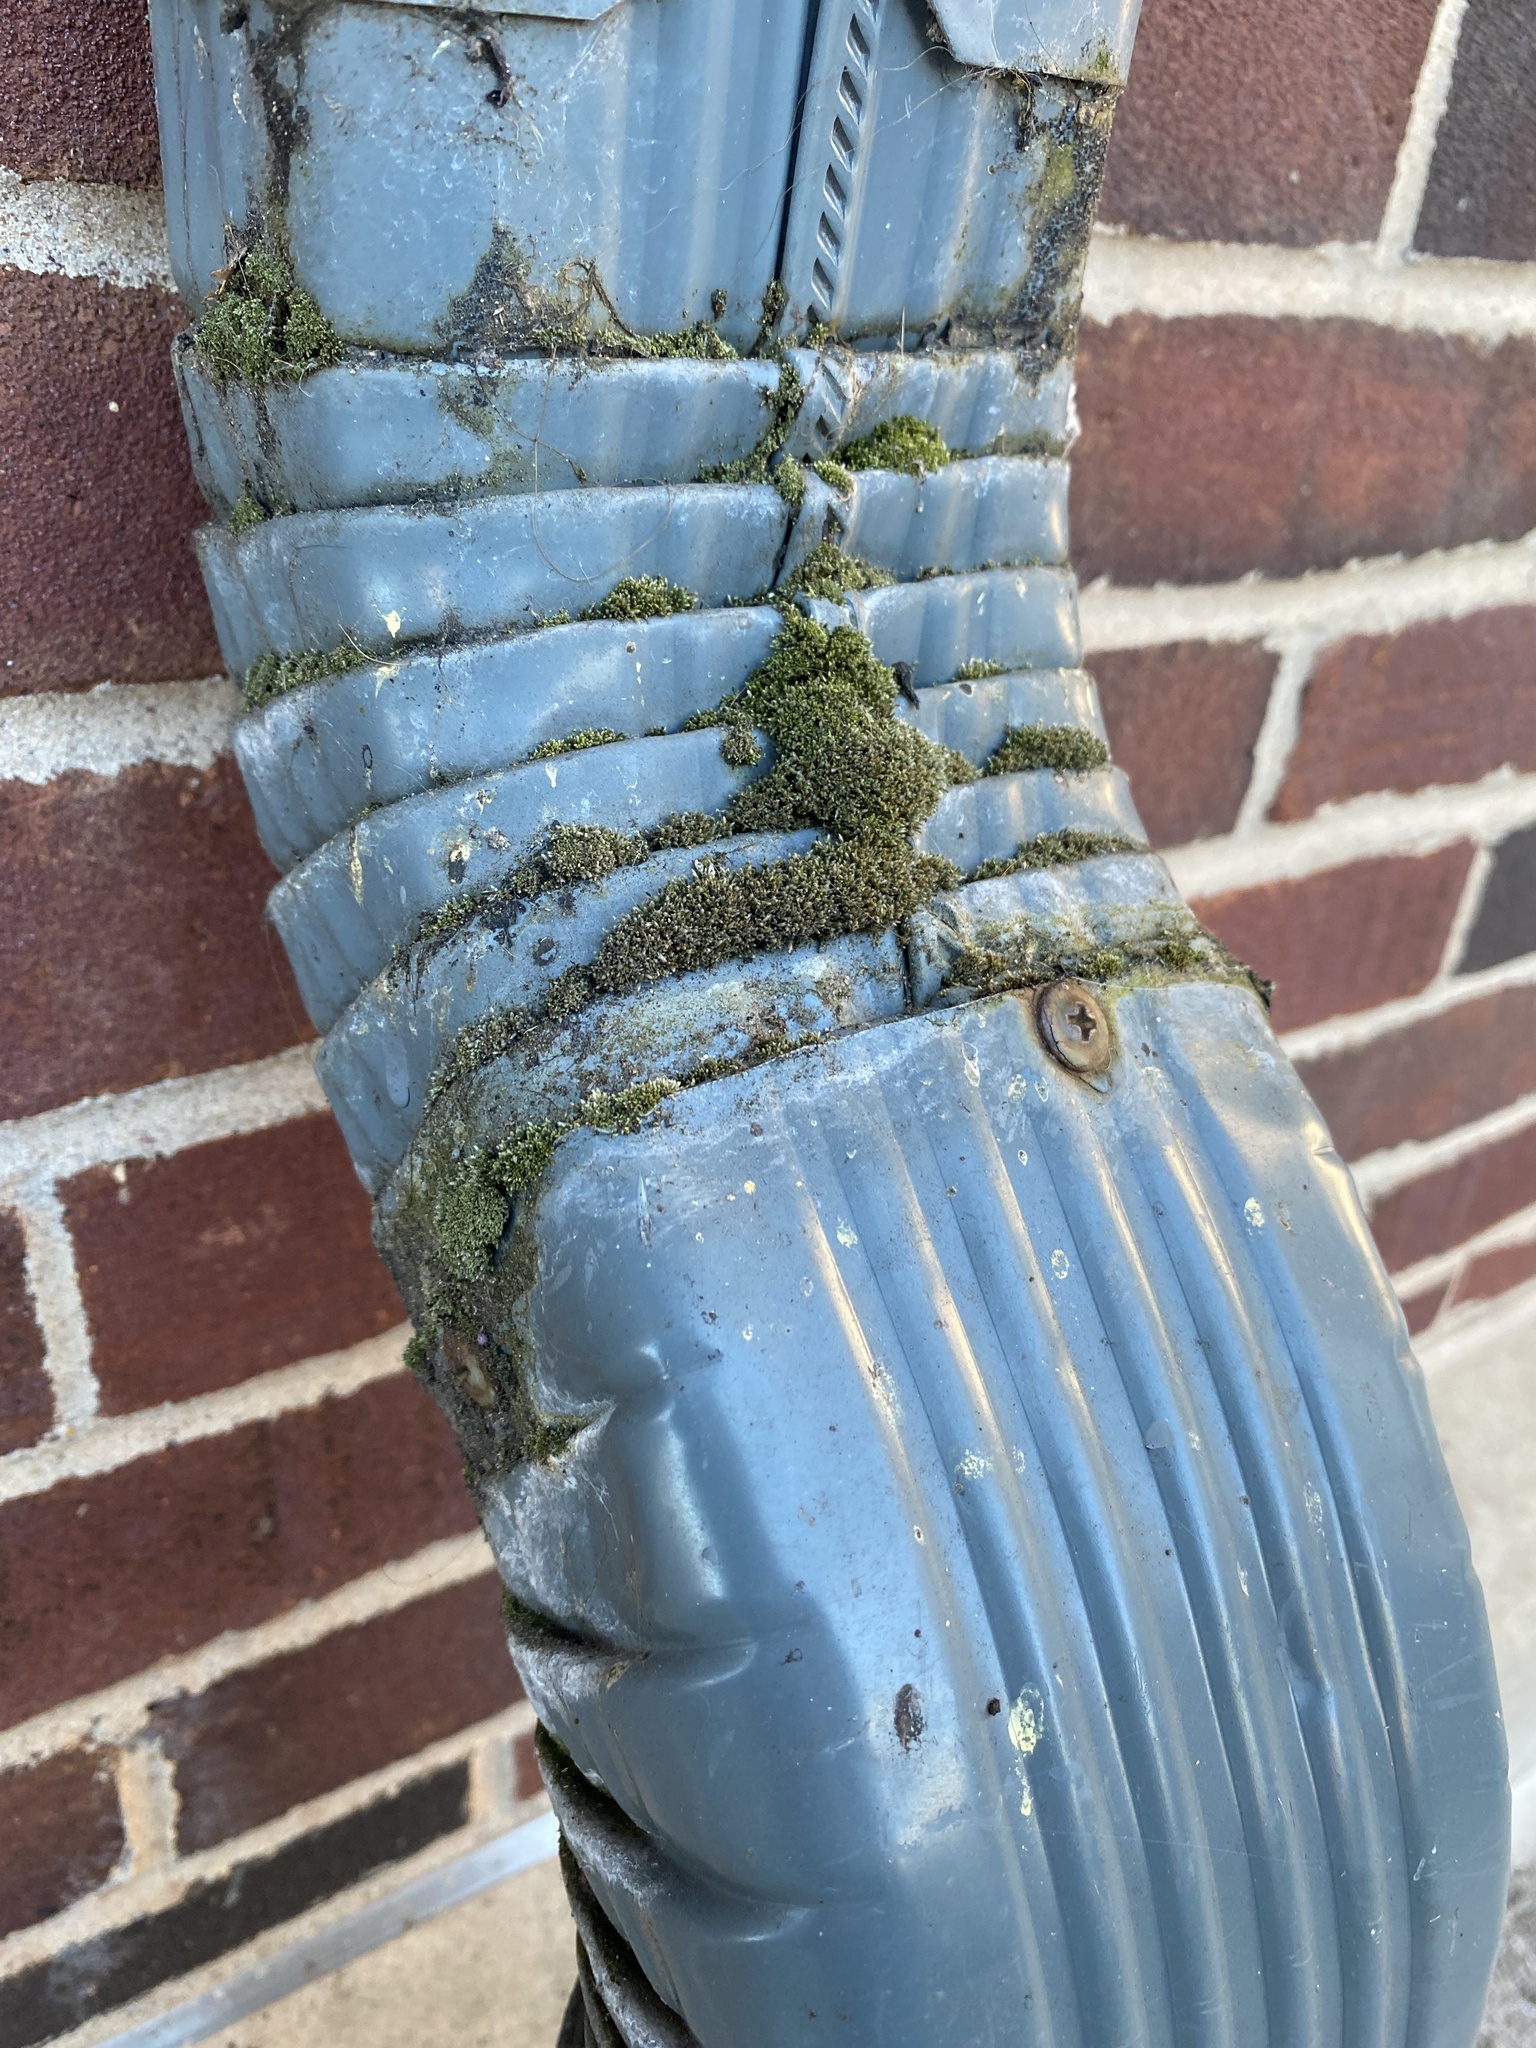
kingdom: Plantae
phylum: Bryophyta
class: Bryopsida
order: Bryales
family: Bryaceae
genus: Bryum
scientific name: Bryum argenteum
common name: Silver-moss
